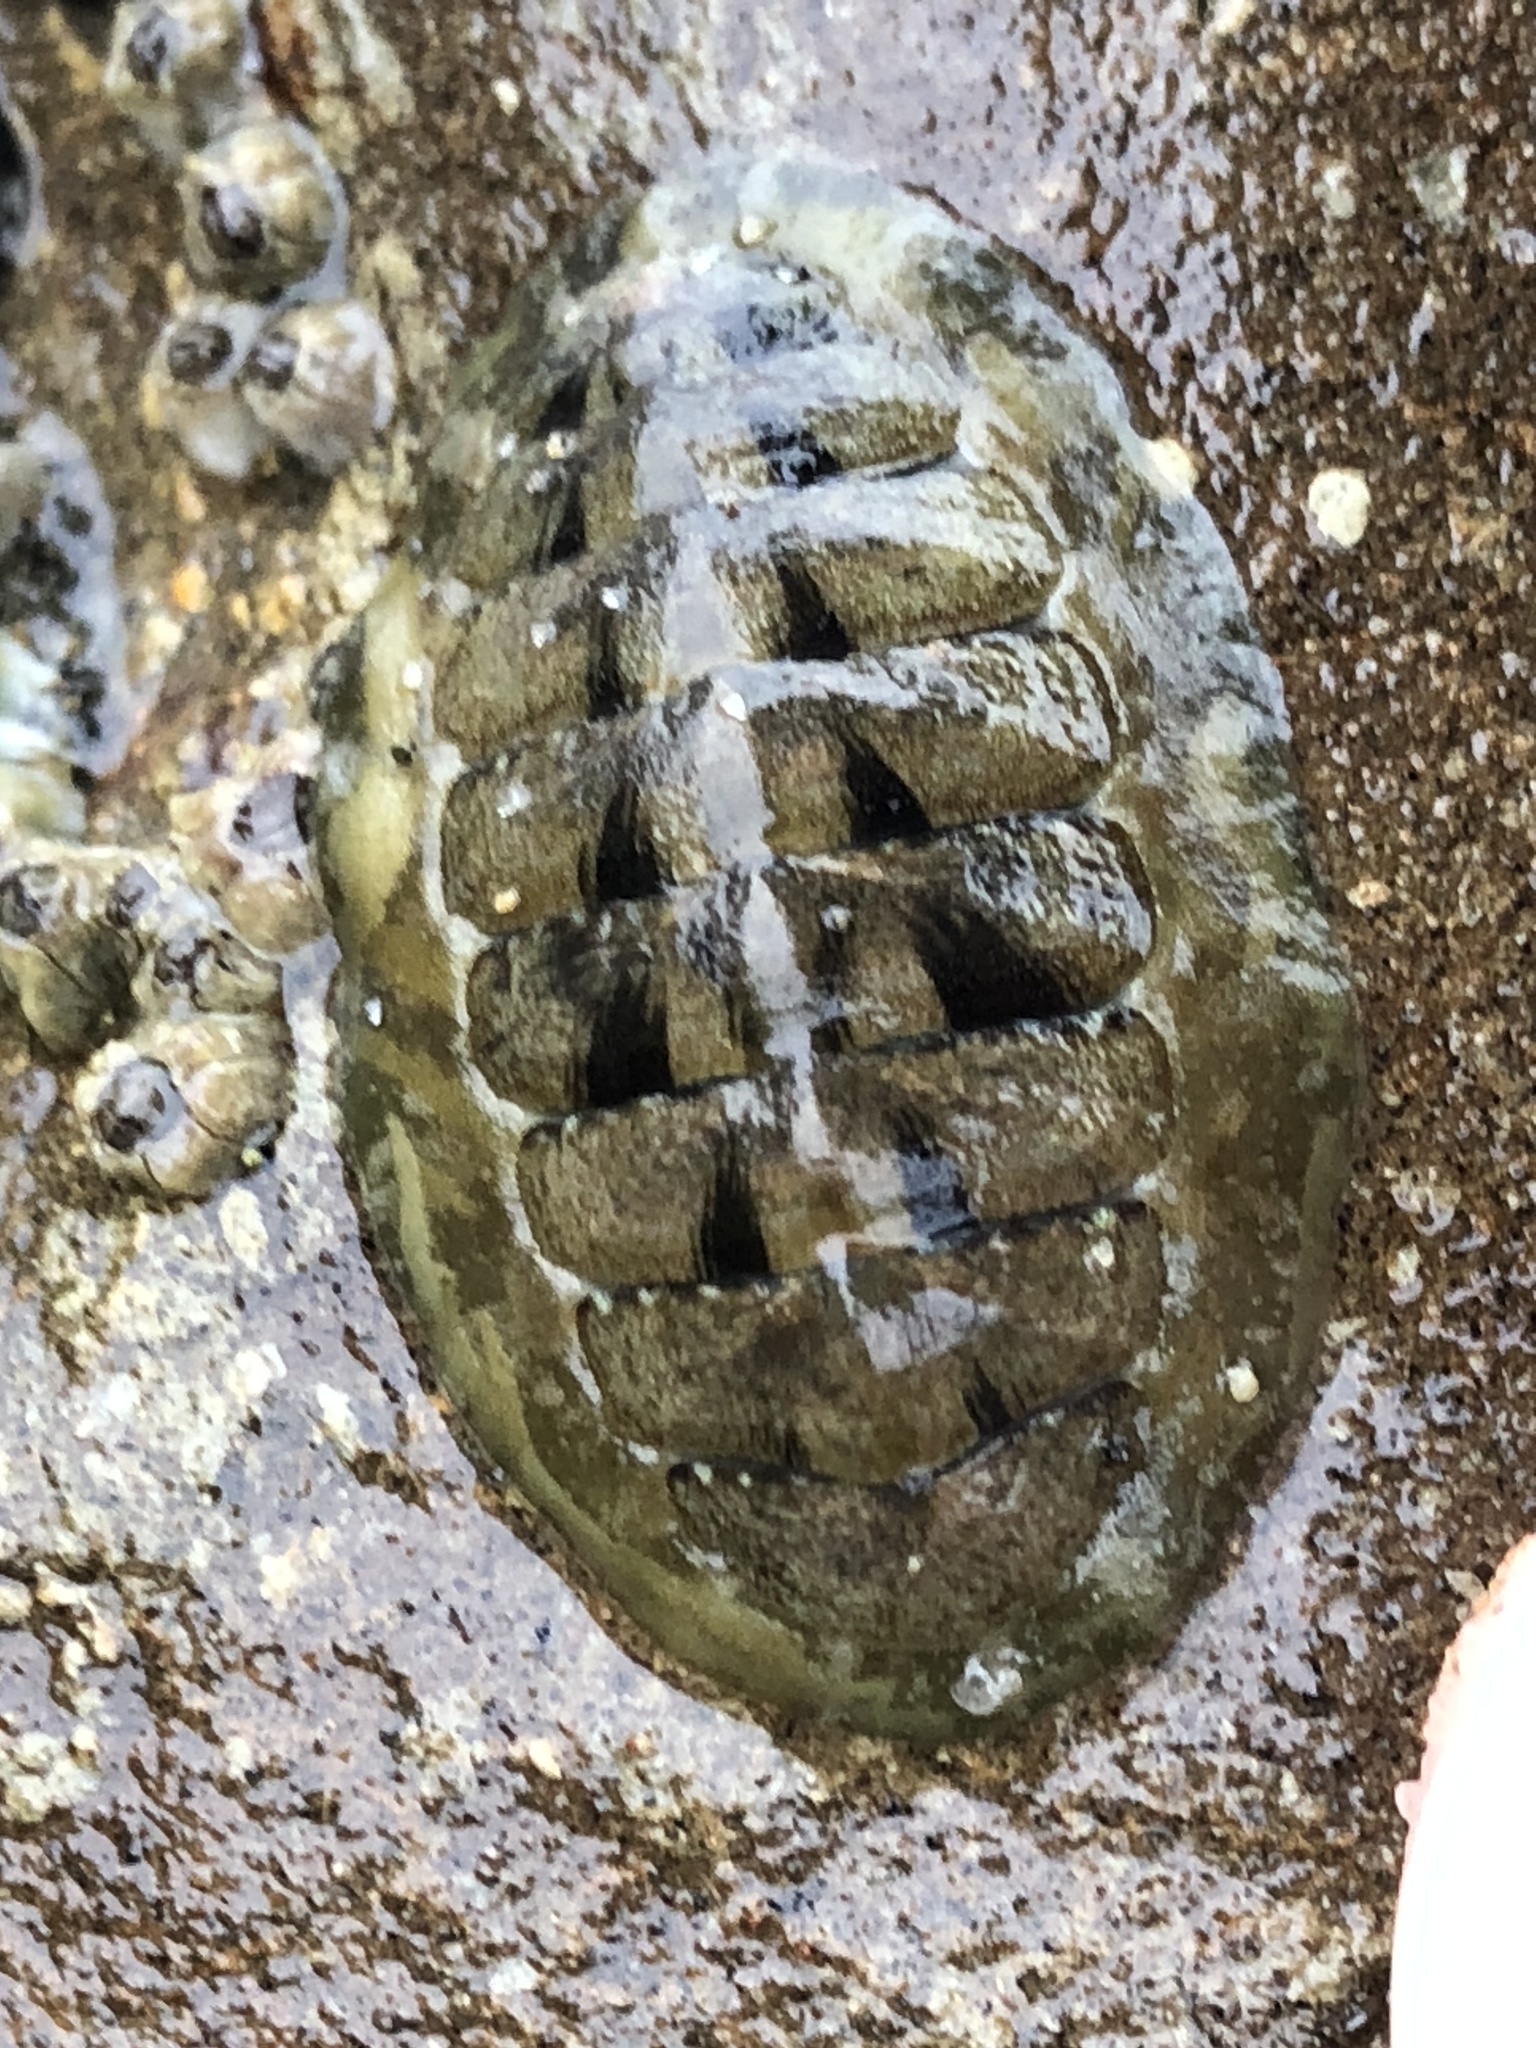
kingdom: Animalia
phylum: Mollusca
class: Polyplacophora
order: Chitonida
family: Tonicellidae
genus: Cyanoplax
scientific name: Cyanoplax hartwegii
